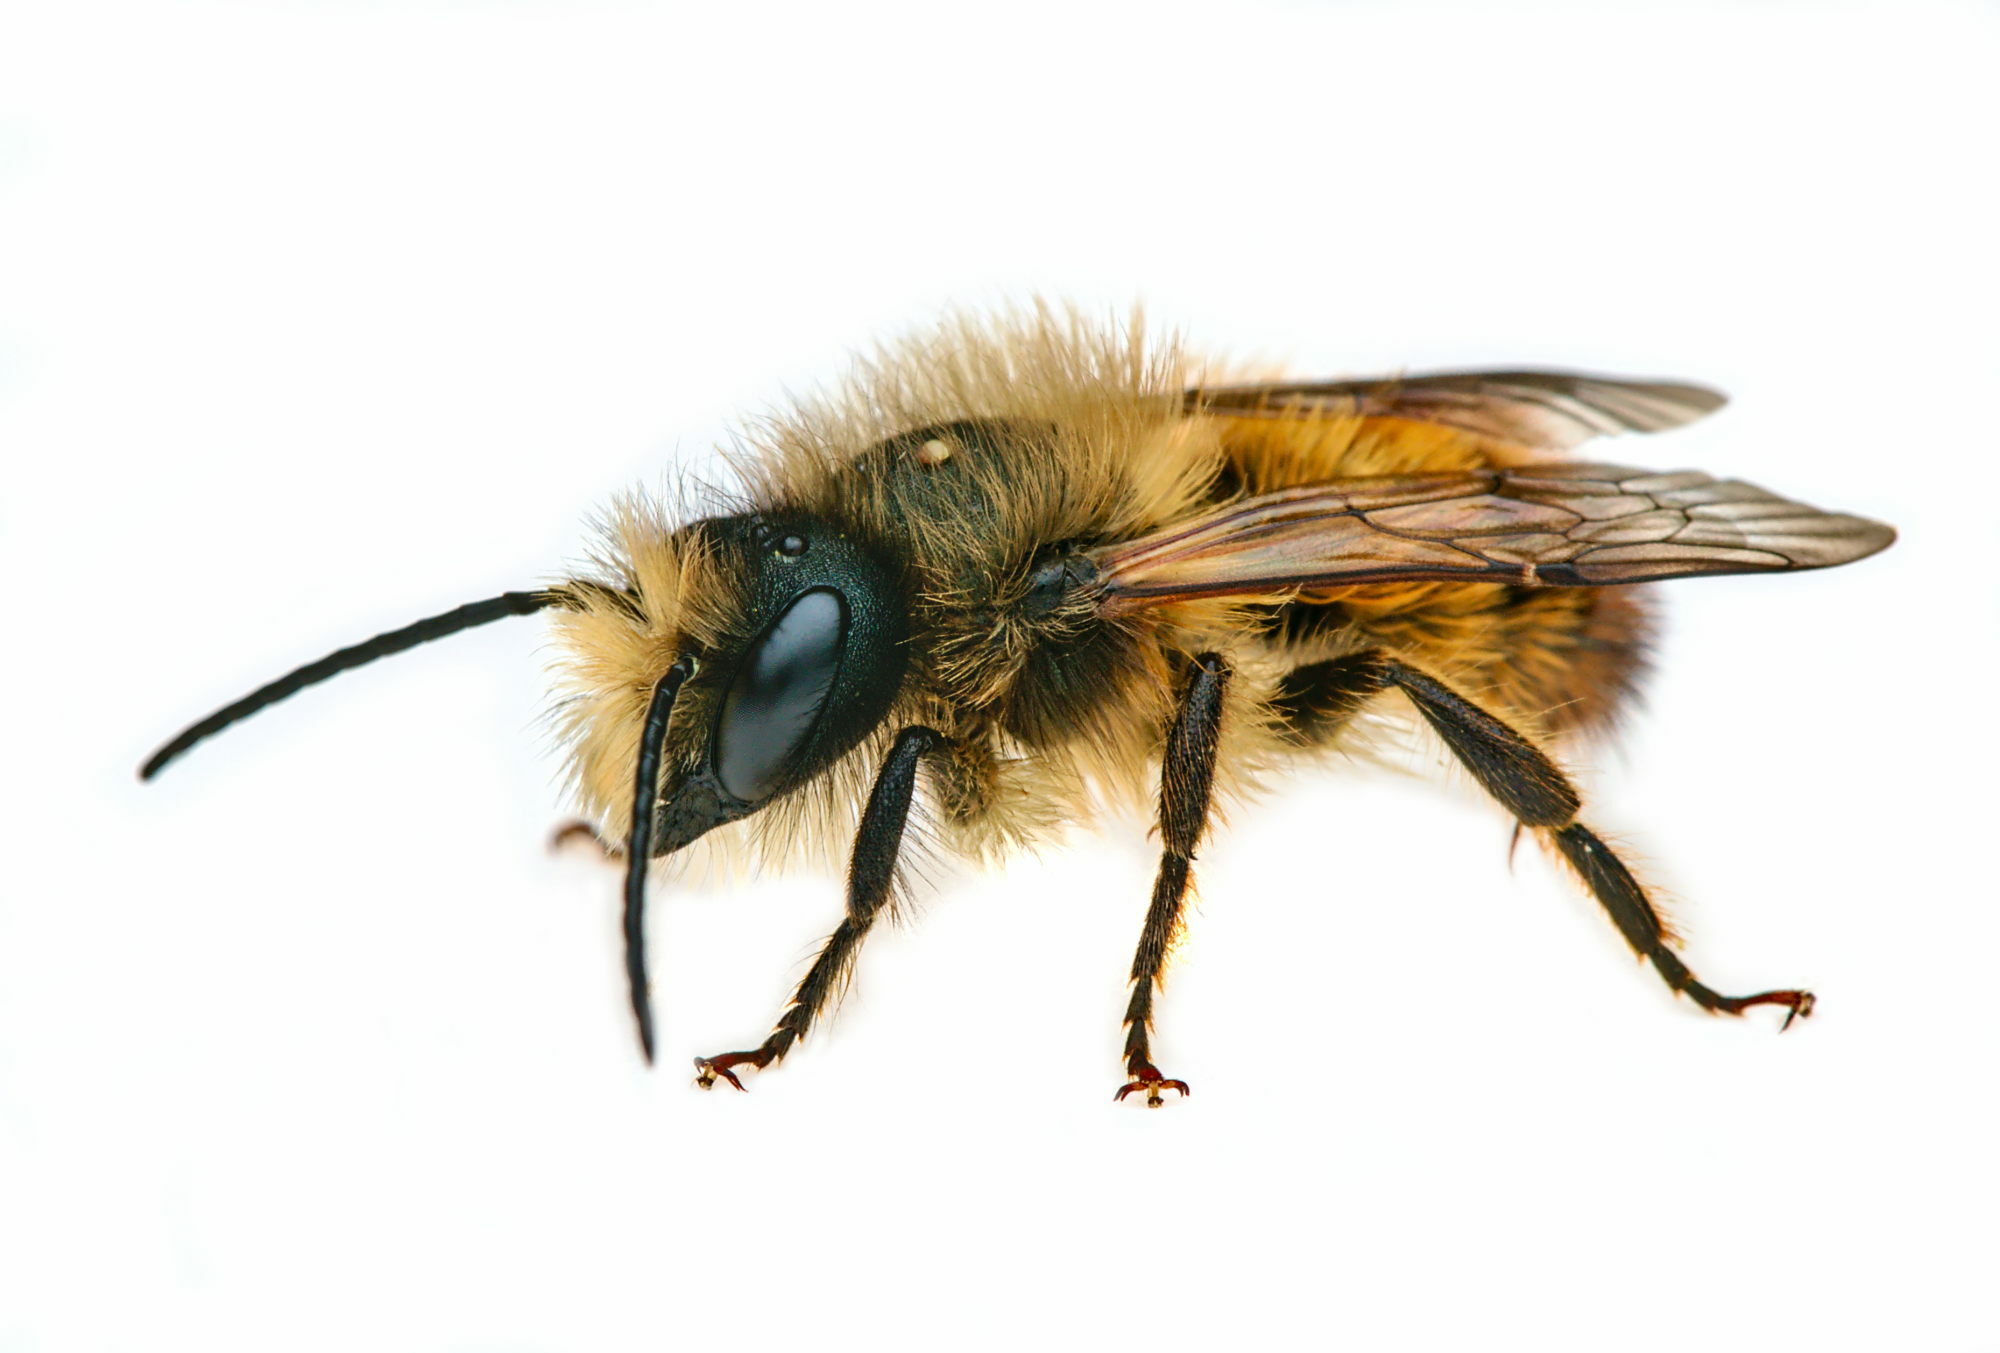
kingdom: Animalia
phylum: Arthropoda
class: Insecta
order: Hymenoptera
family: Megachilidae
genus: Osmia
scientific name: Osmia bicornis
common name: Red mason bee
